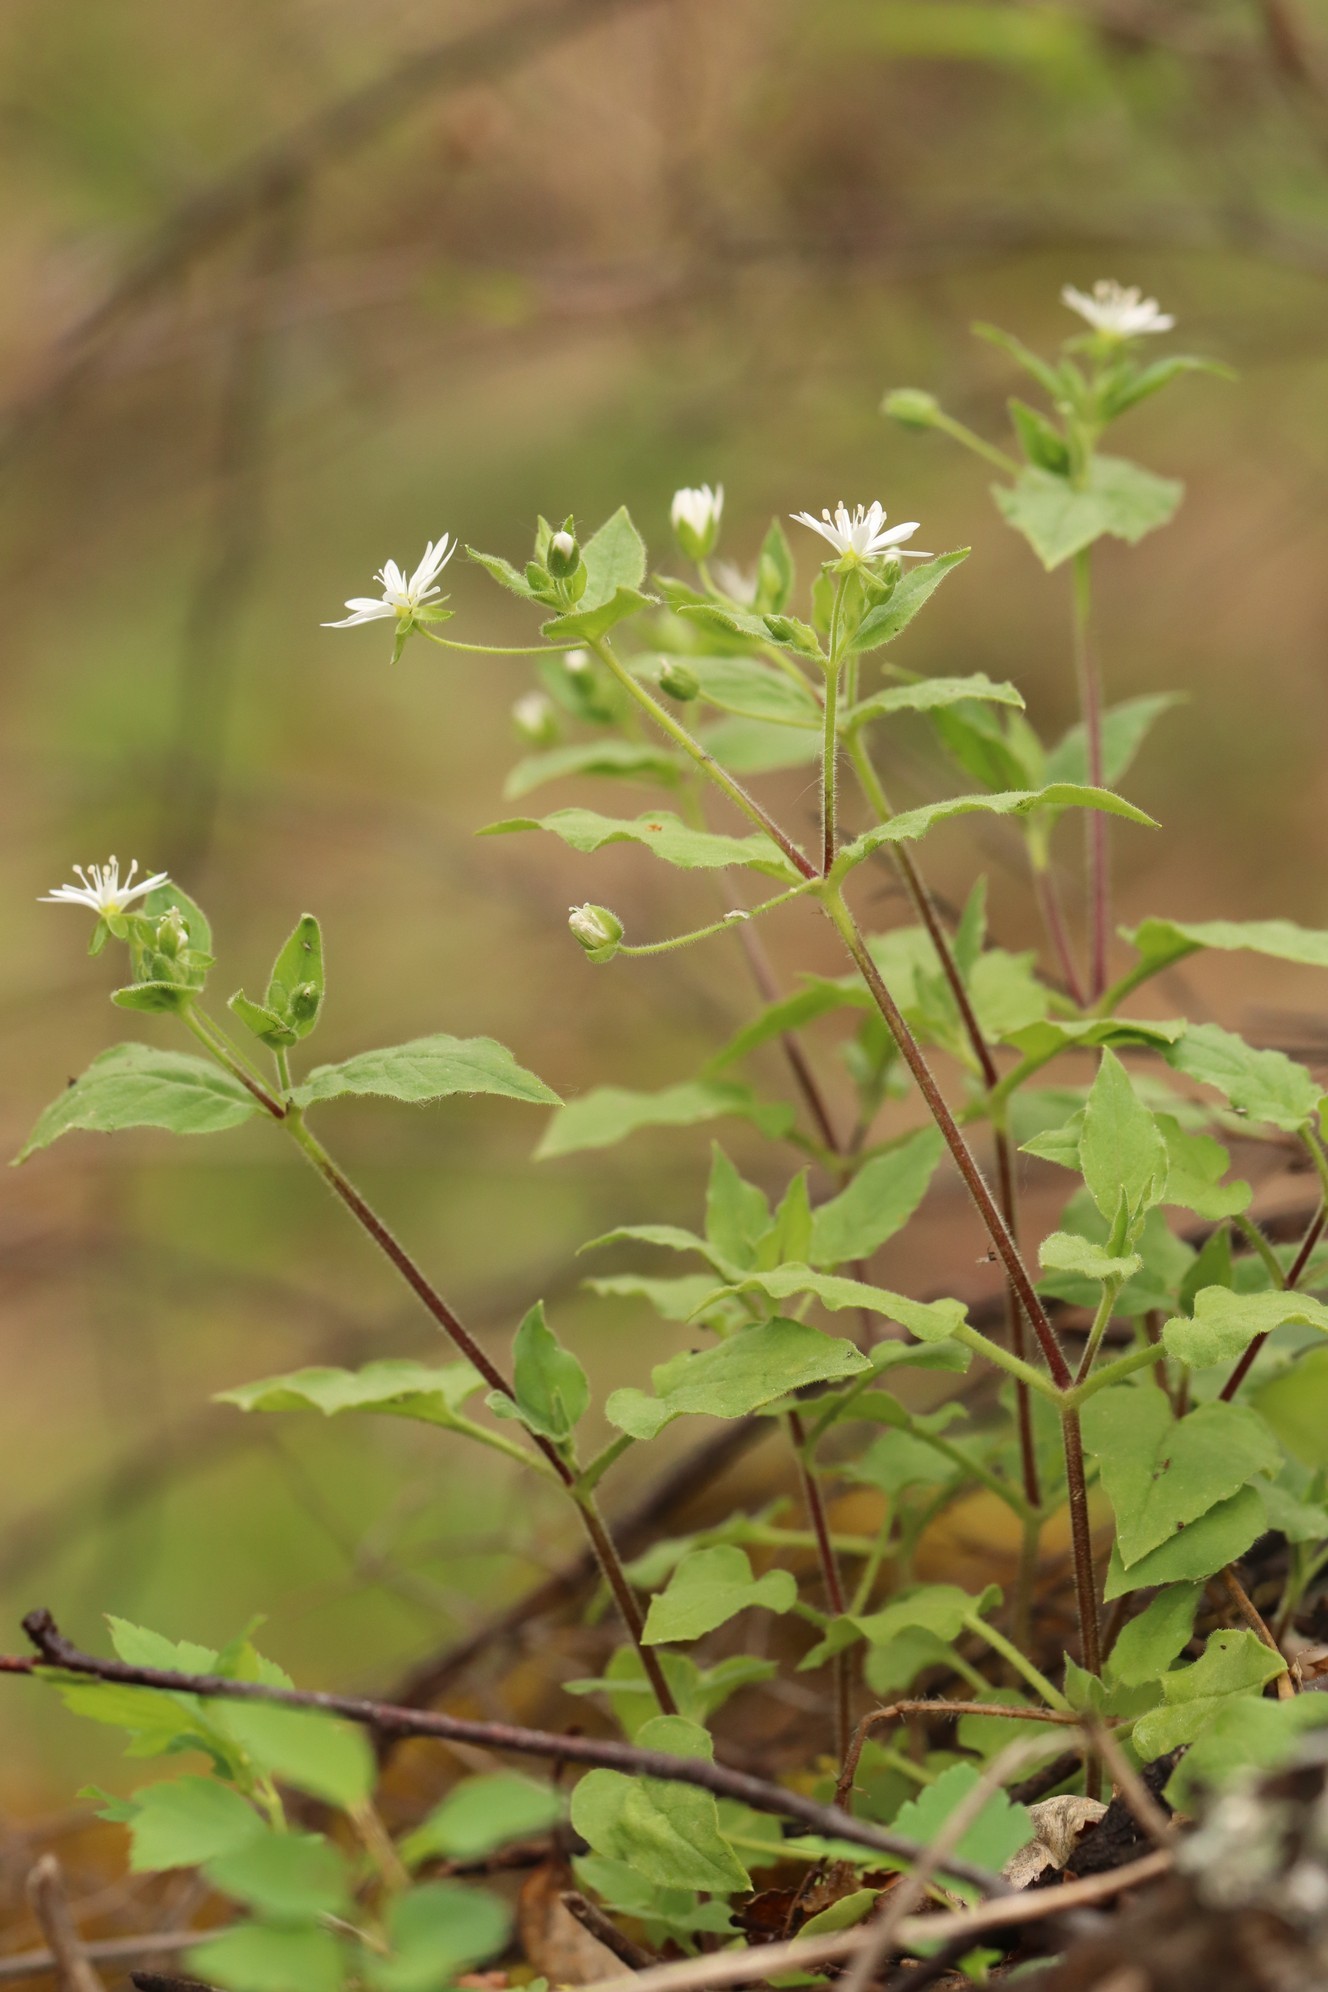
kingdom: Plantae
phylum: Tracheophyta
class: Magnoliopsida
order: Caryophyllales
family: Caryophyllaceae
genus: Stellaria
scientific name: Stellaria bungeana
